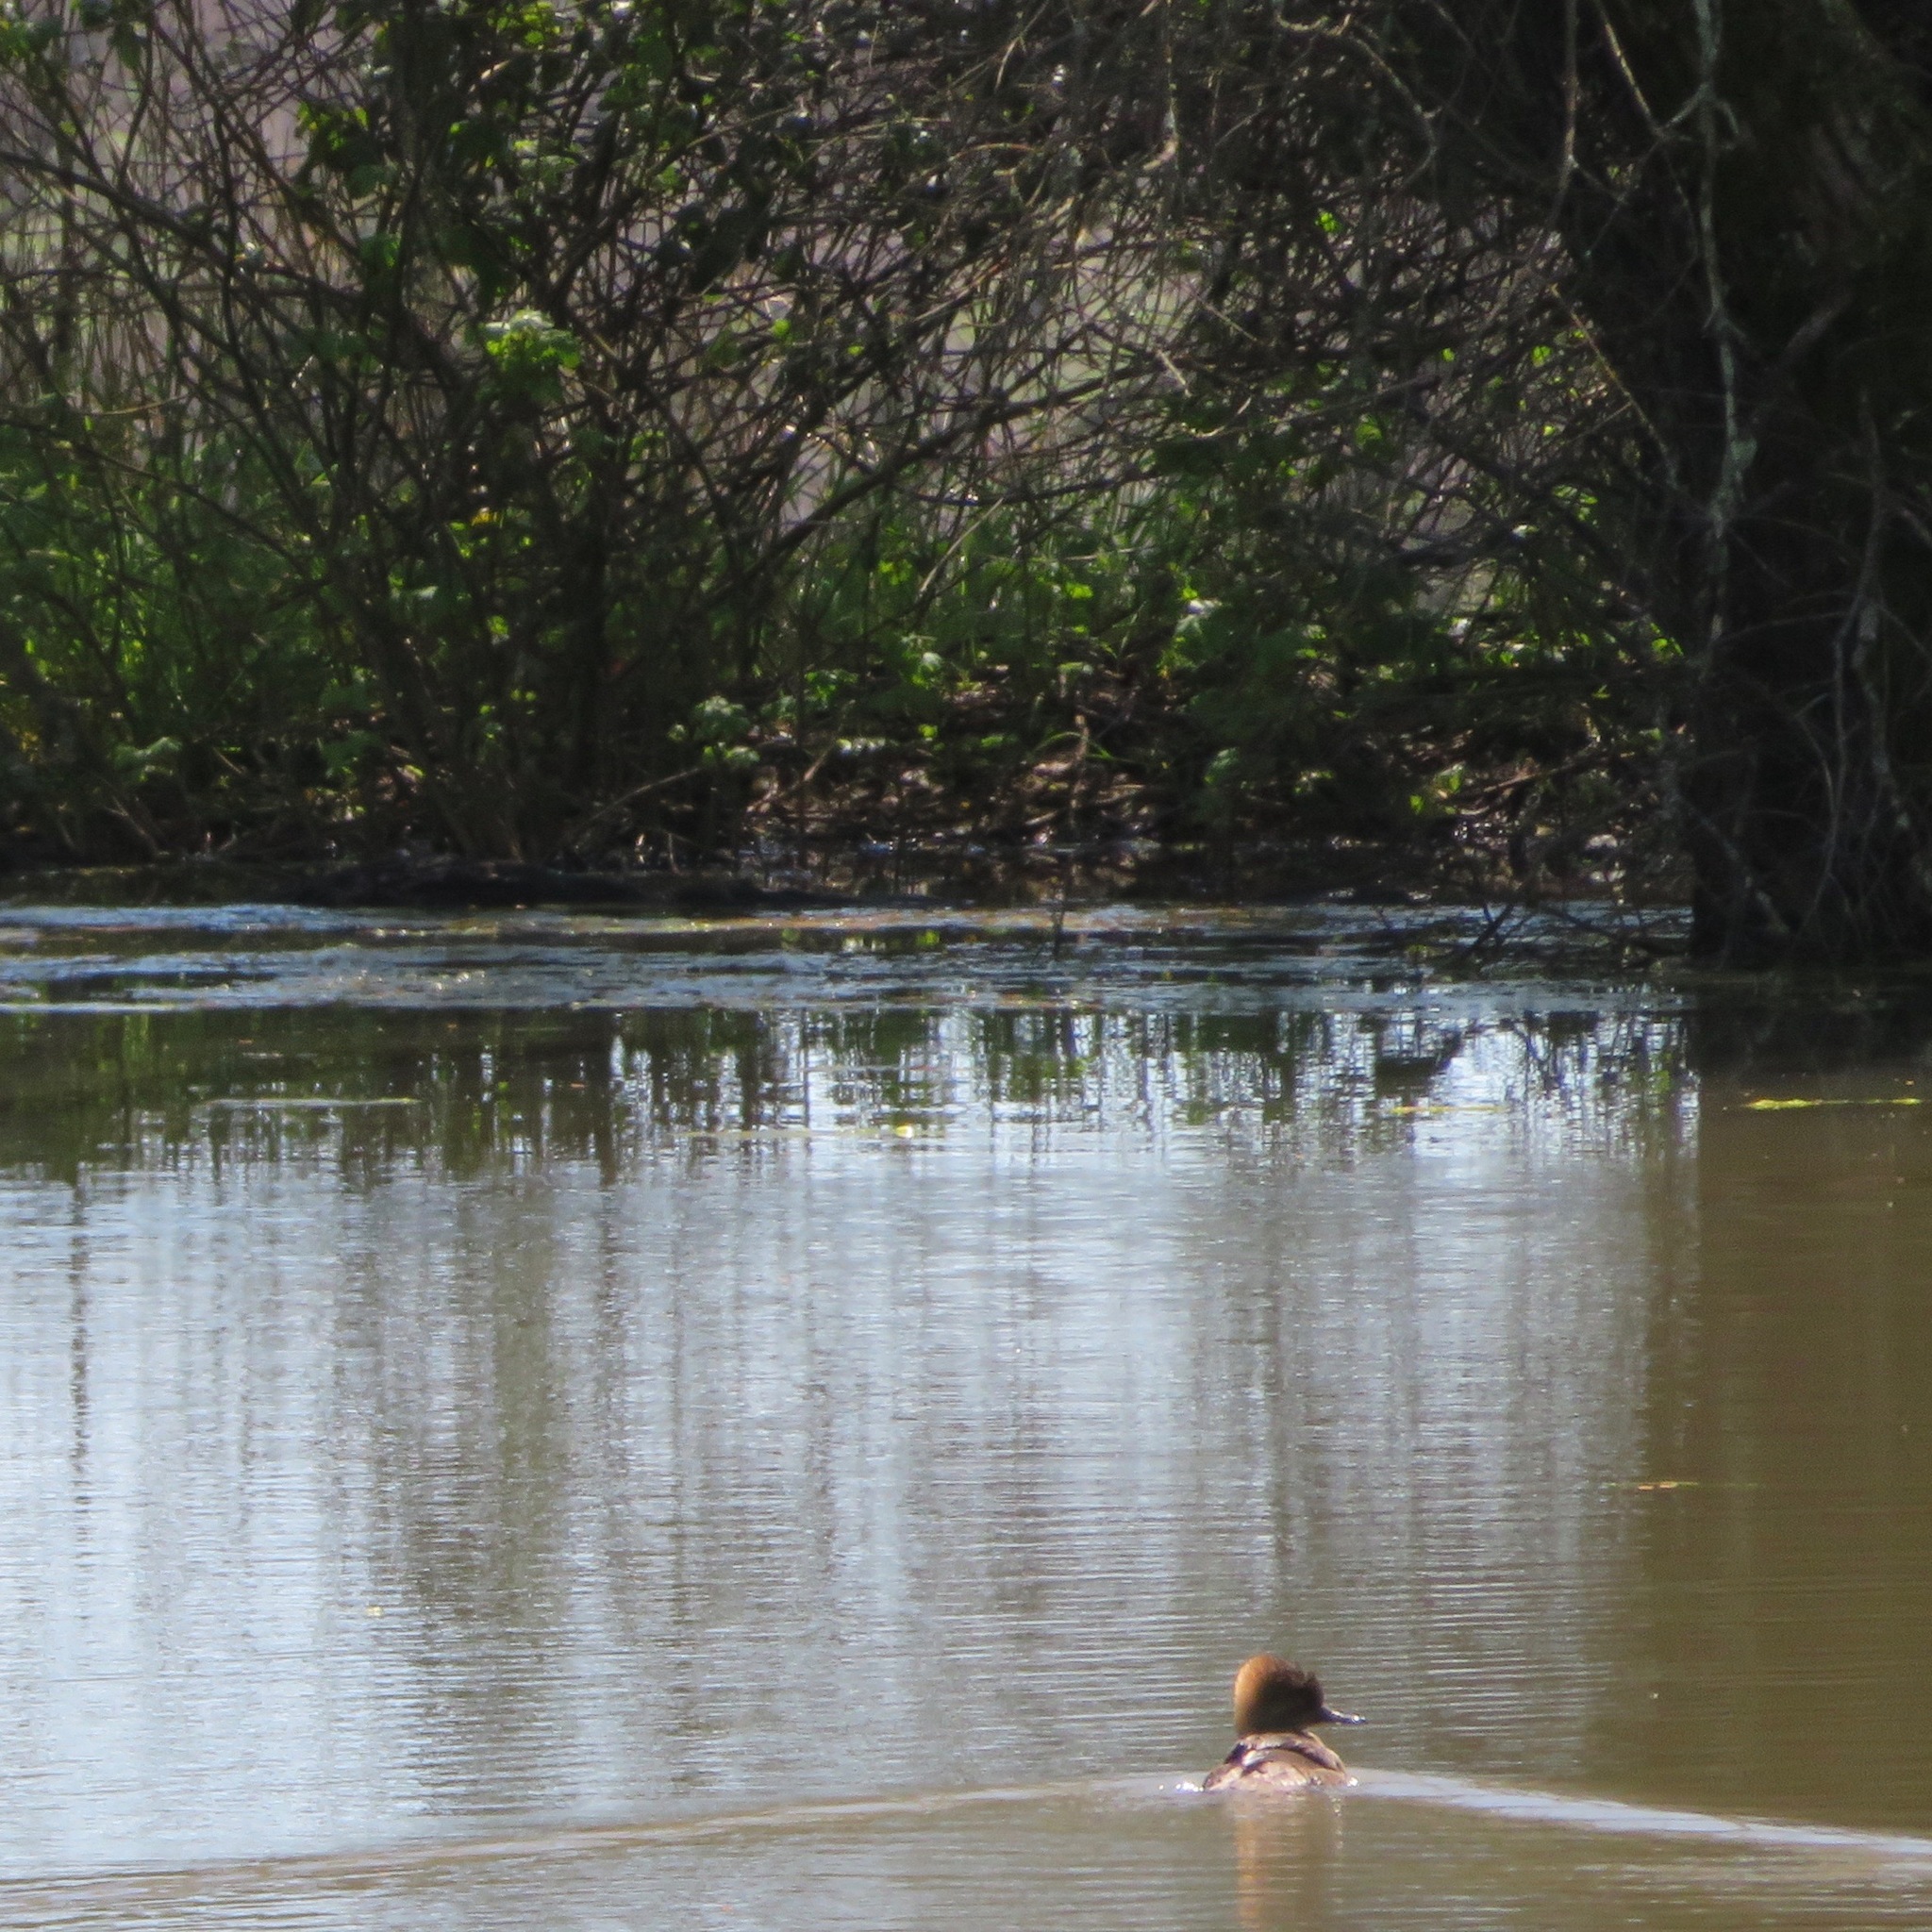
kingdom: Animalia
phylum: Chordata
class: Aves
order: Anseriformes
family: Anatidae
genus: Lophodytes
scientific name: Lophodytes cucullatus
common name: Hooded merganser
